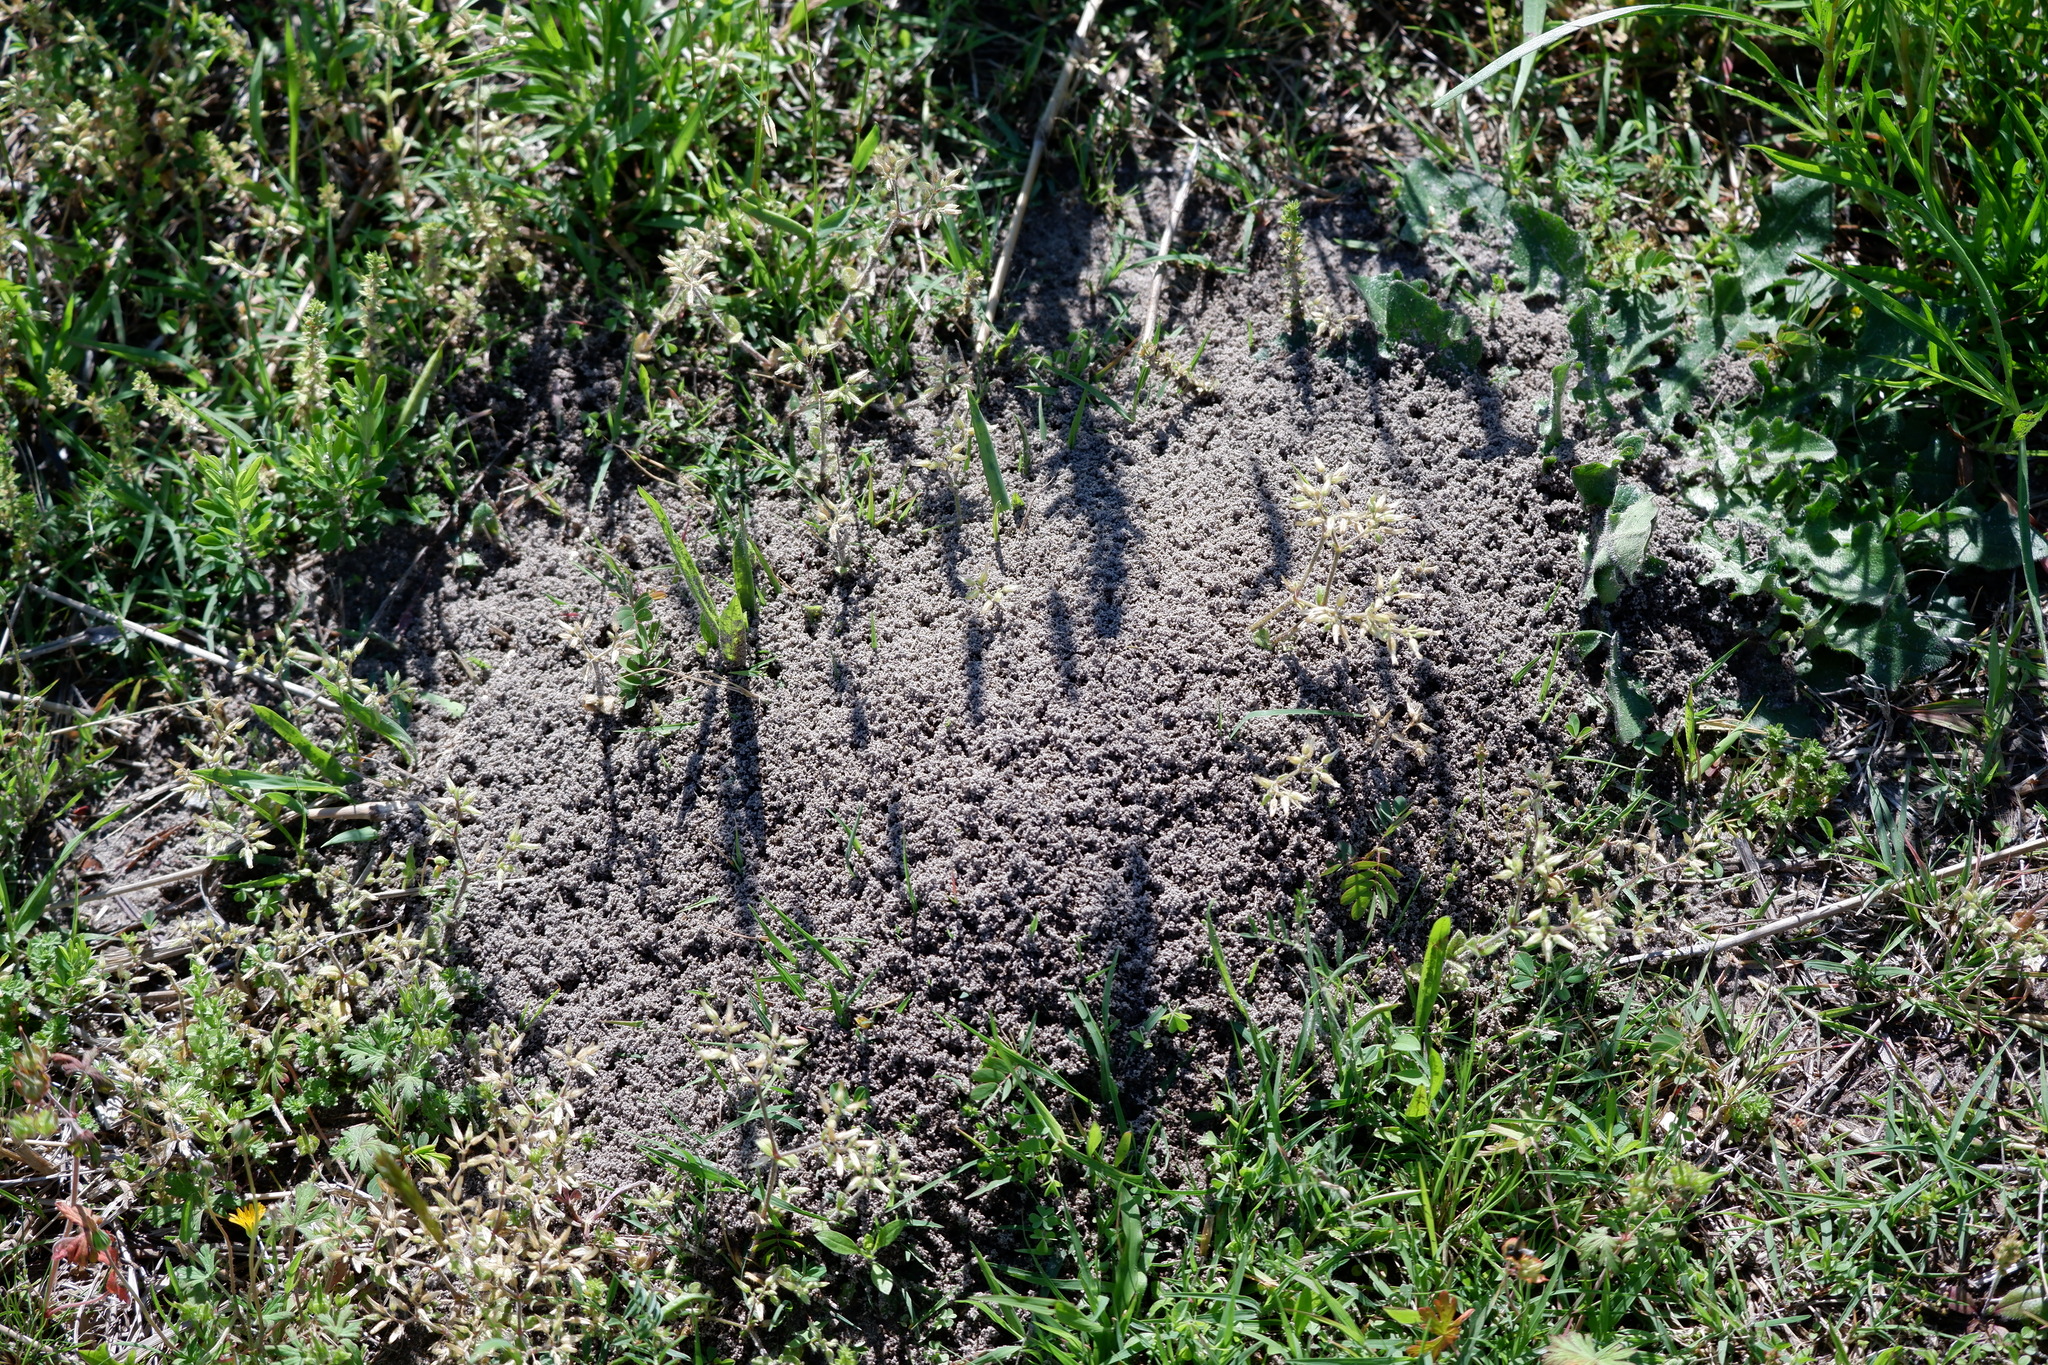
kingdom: Animalia
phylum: Arthropoda
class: Insecta
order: Hymenoptera
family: Formicidae
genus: Solenopsis
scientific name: Solenopsis invicta
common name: Red imported fire ant
